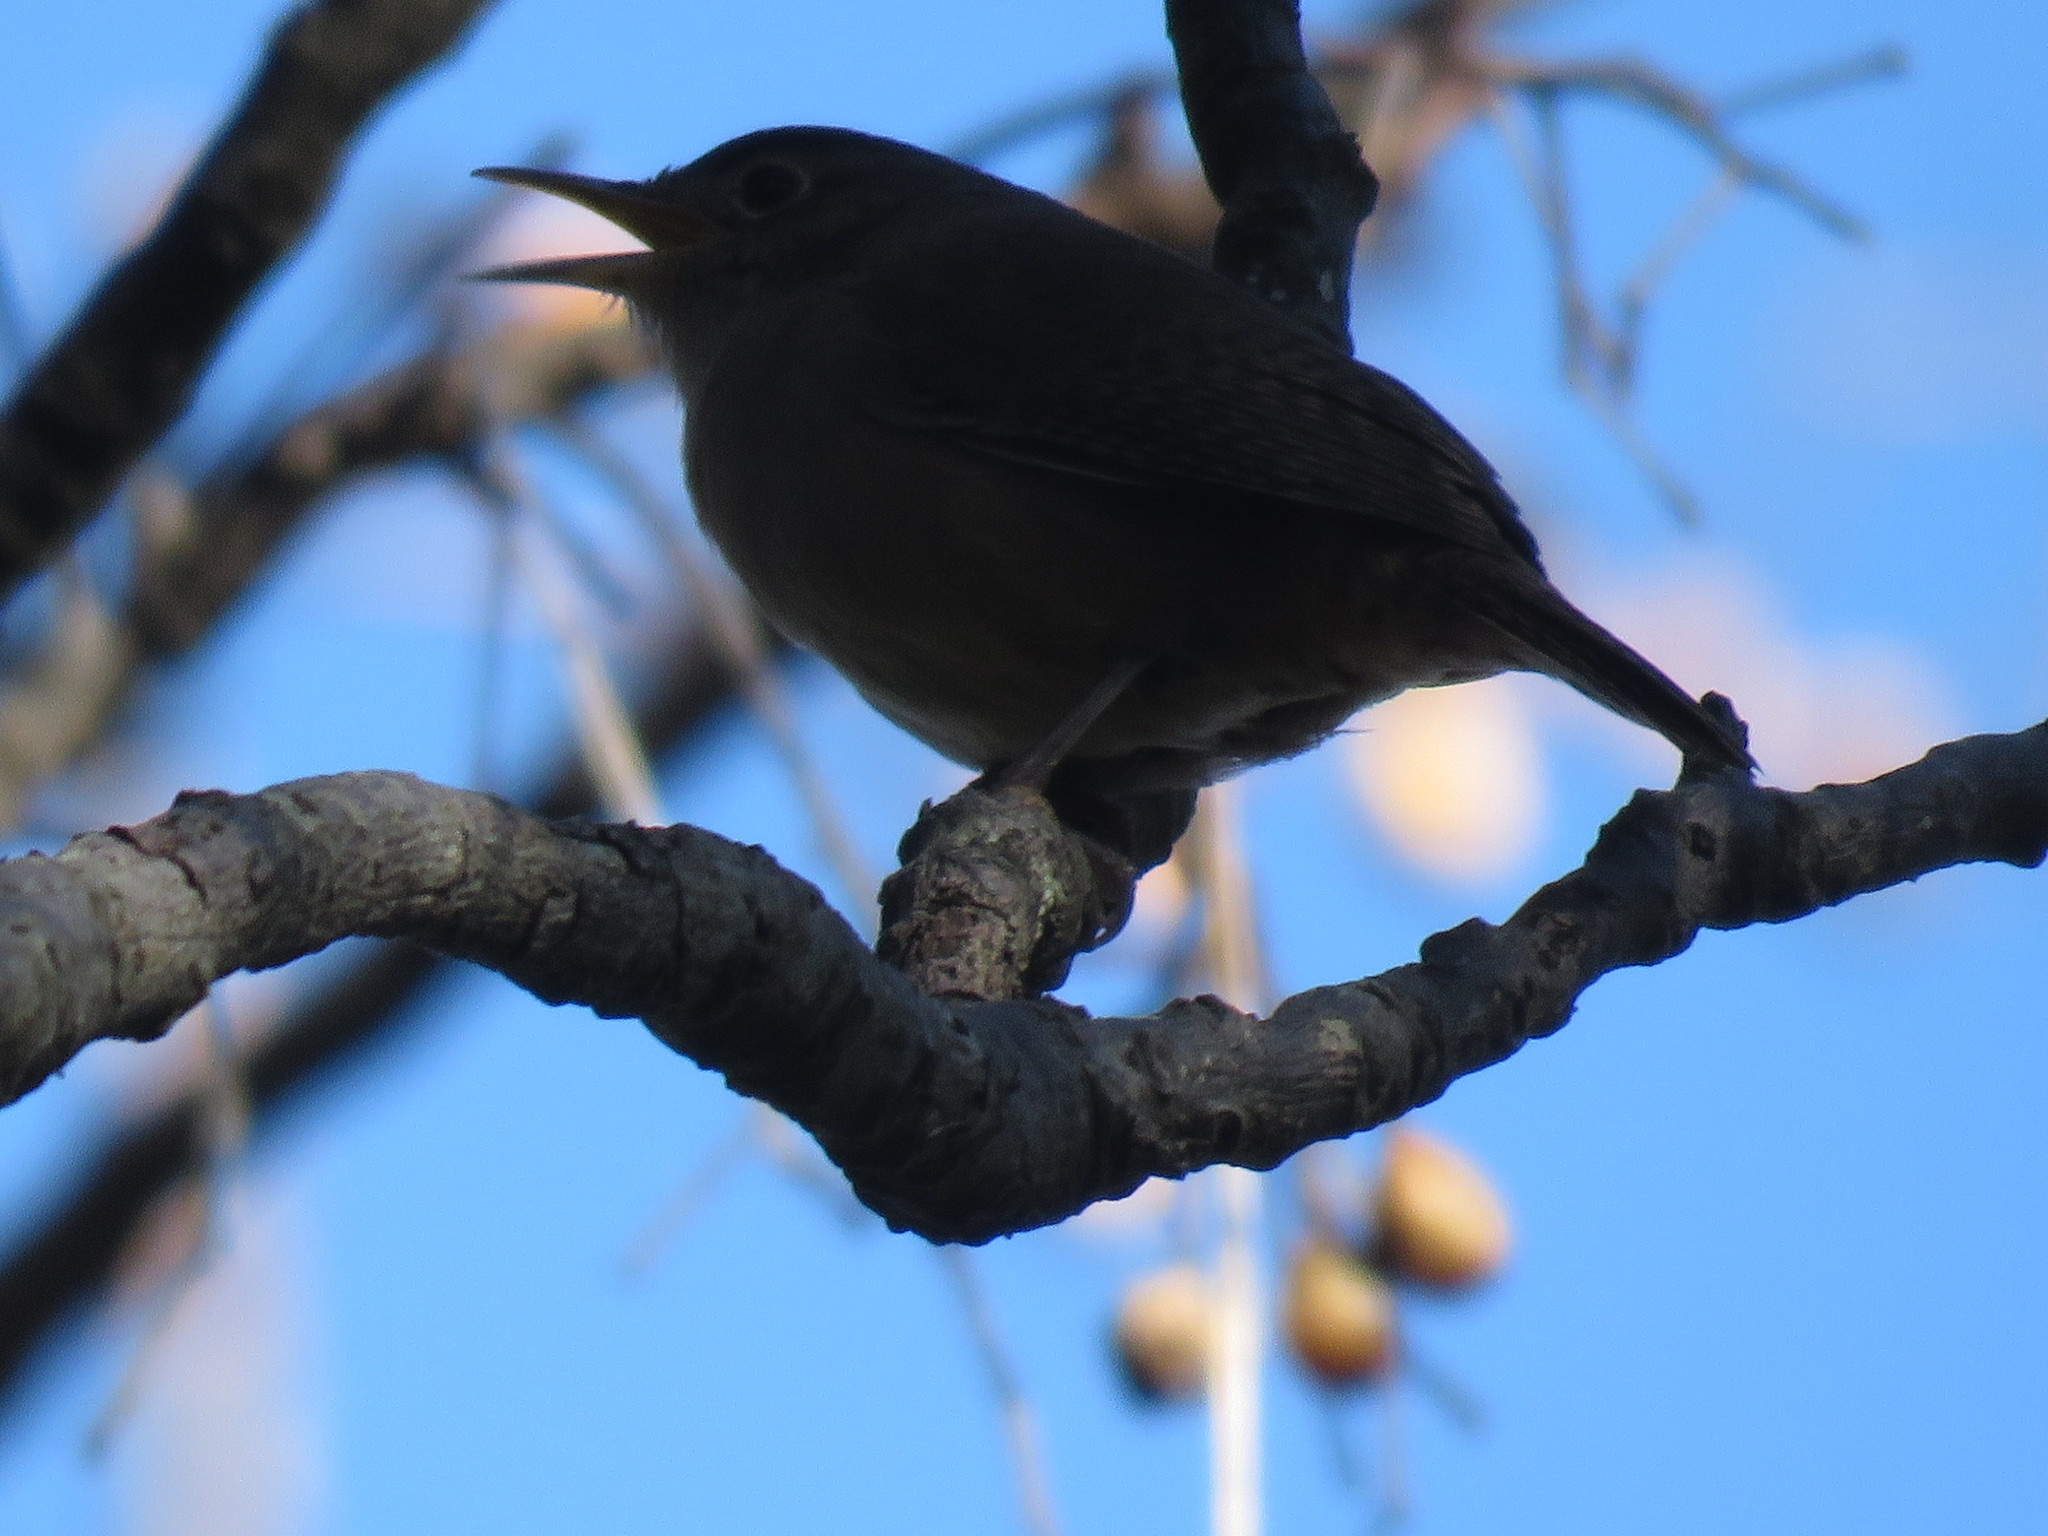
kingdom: Animalia
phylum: Chordata
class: Aves
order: Passeriformes
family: Troglodytidae
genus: Troglodytes
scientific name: Troglodytes aedon
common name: House wren
